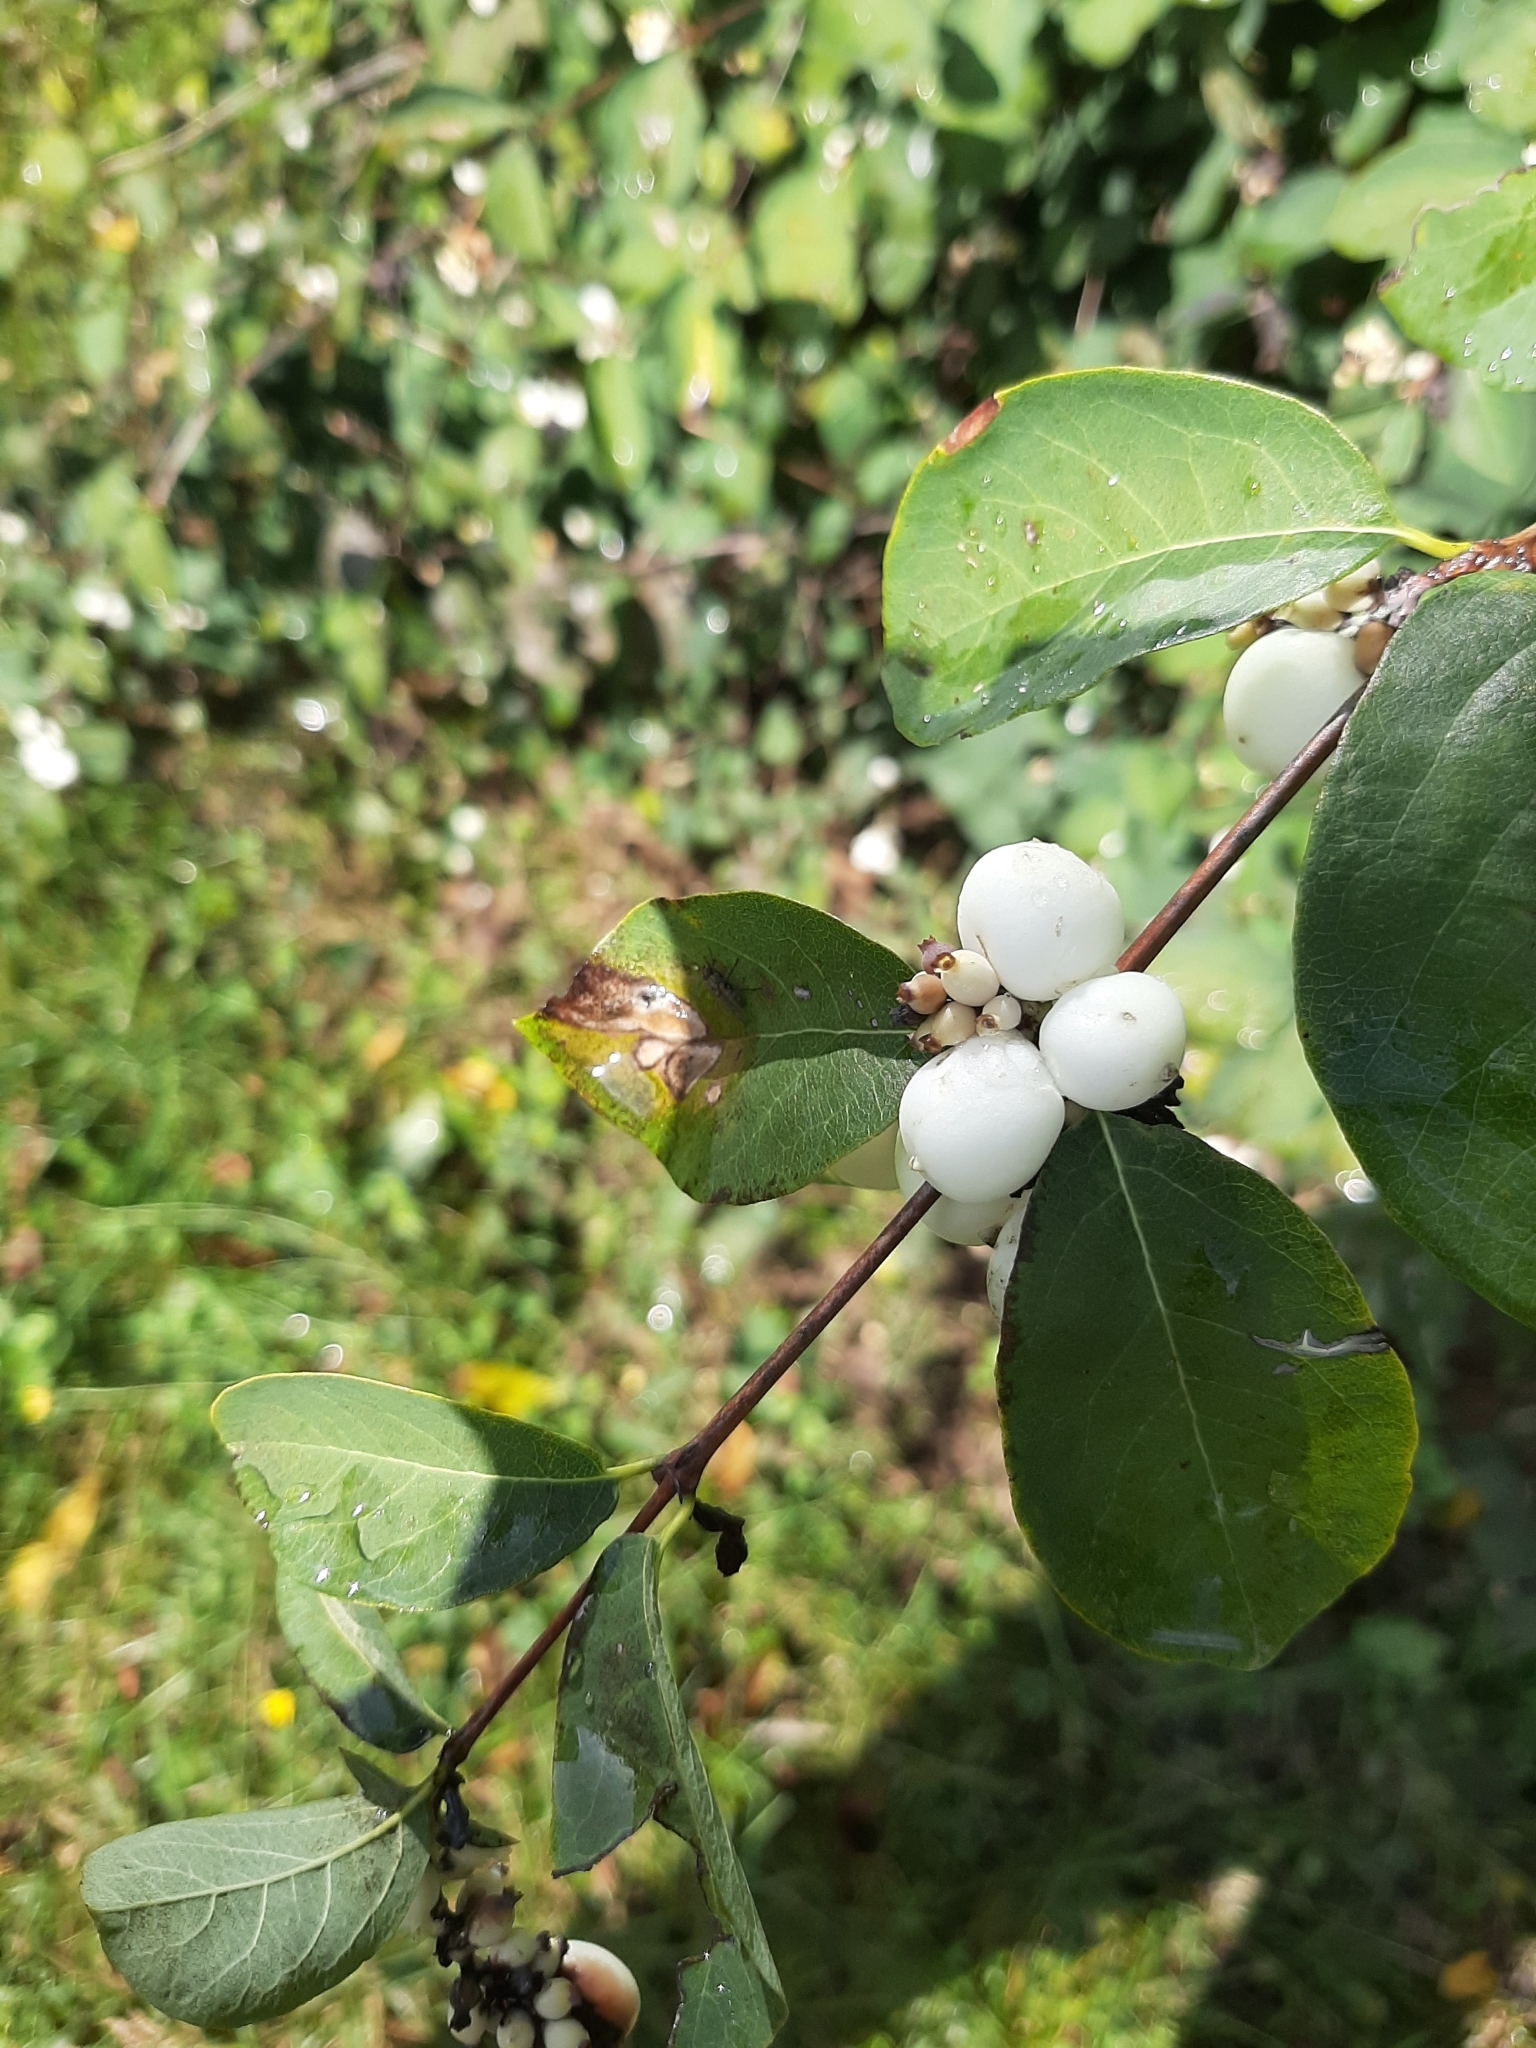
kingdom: Plantae
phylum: Tracheophyta
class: Magnoliopsida
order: Dipsacales
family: Caprifoliaceae
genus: Symphoricarpos
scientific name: Symphoricarpos albus
